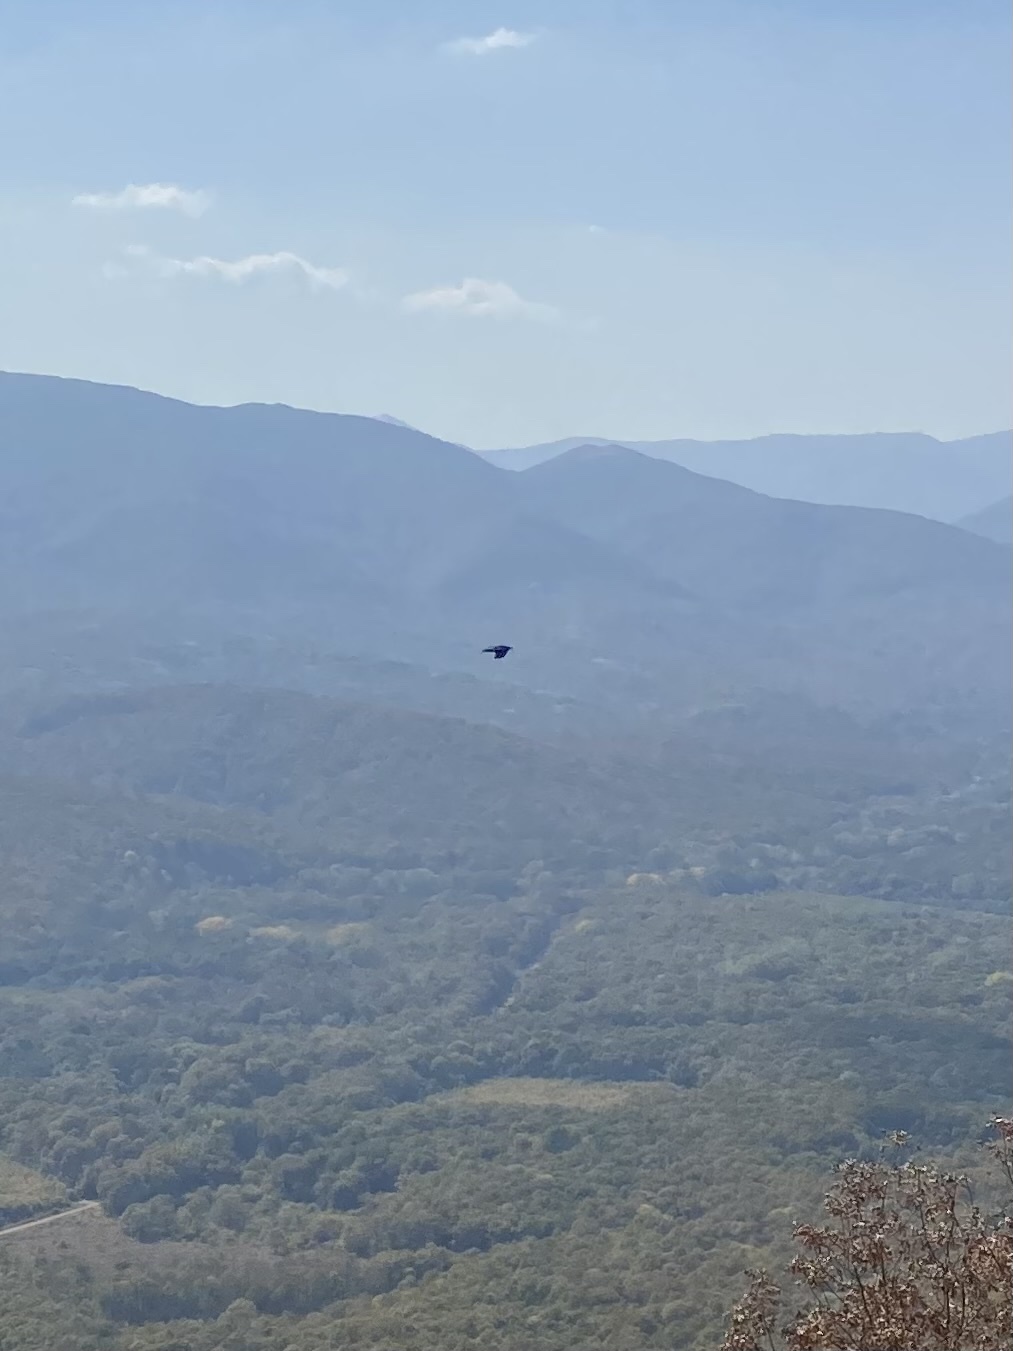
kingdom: Animalia
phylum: Chordata
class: Aves
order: Passeriformes
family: Corvidae
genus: Corvus
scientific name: Corvus corax
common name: Common raven
